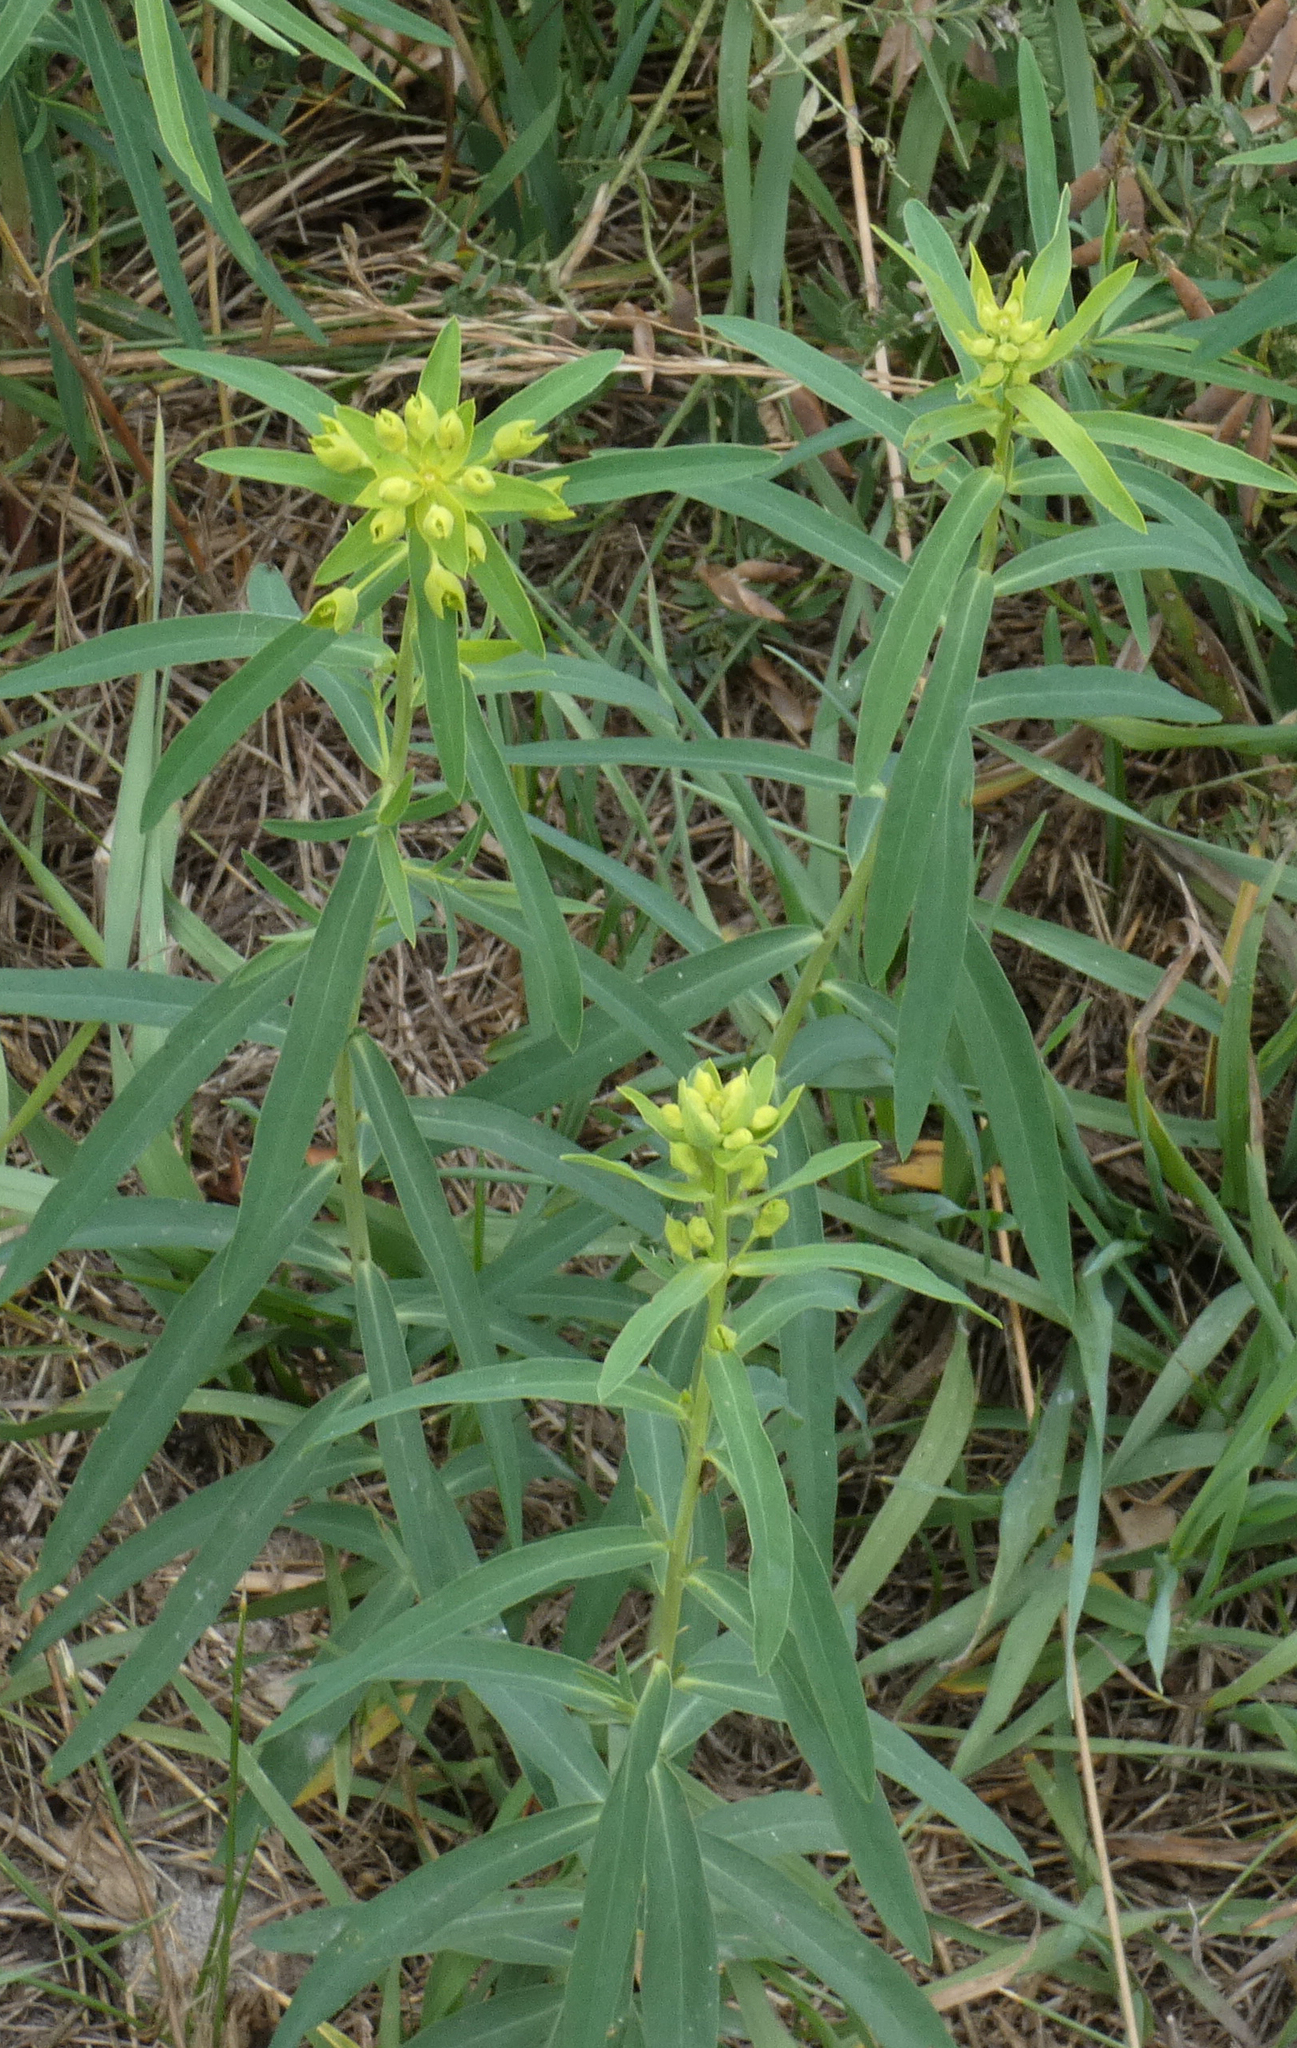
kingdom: Plantae
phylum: Tracheophyta
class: Magnoliopsida
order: Malpighiales
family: Euphorbiaceae
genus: Euphorbia
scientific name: Euphorbia virgata
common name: Leafy spurge
